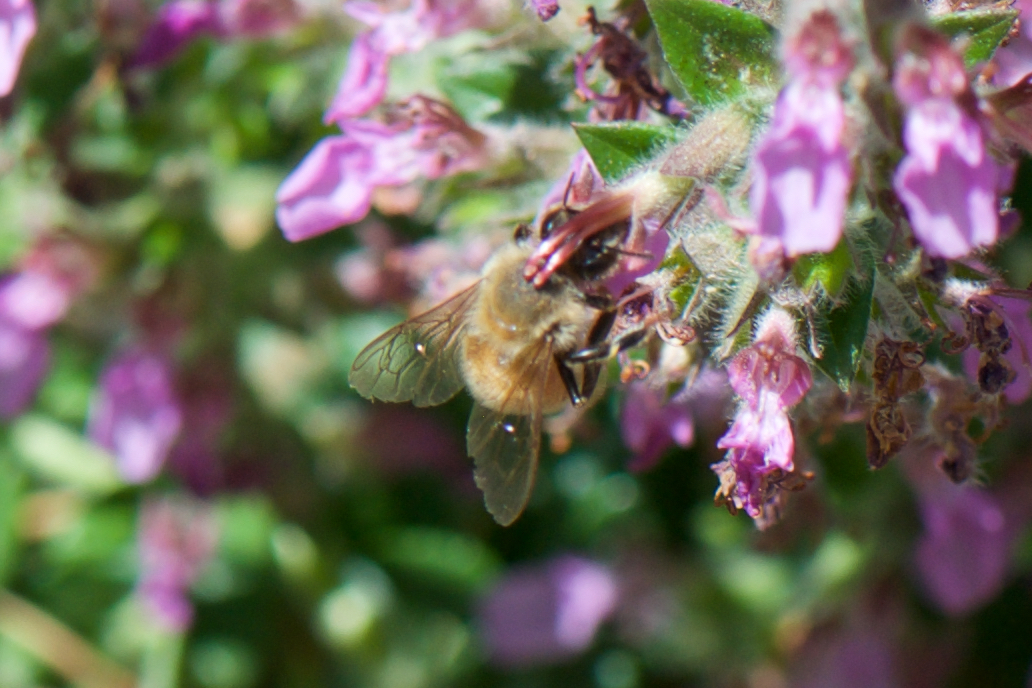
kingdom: Animalia
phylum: Arthropoda
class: Insecta
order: Hymenoptera
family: Apidae
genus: Apis
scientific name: Apis mellifera
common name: Honey bee
